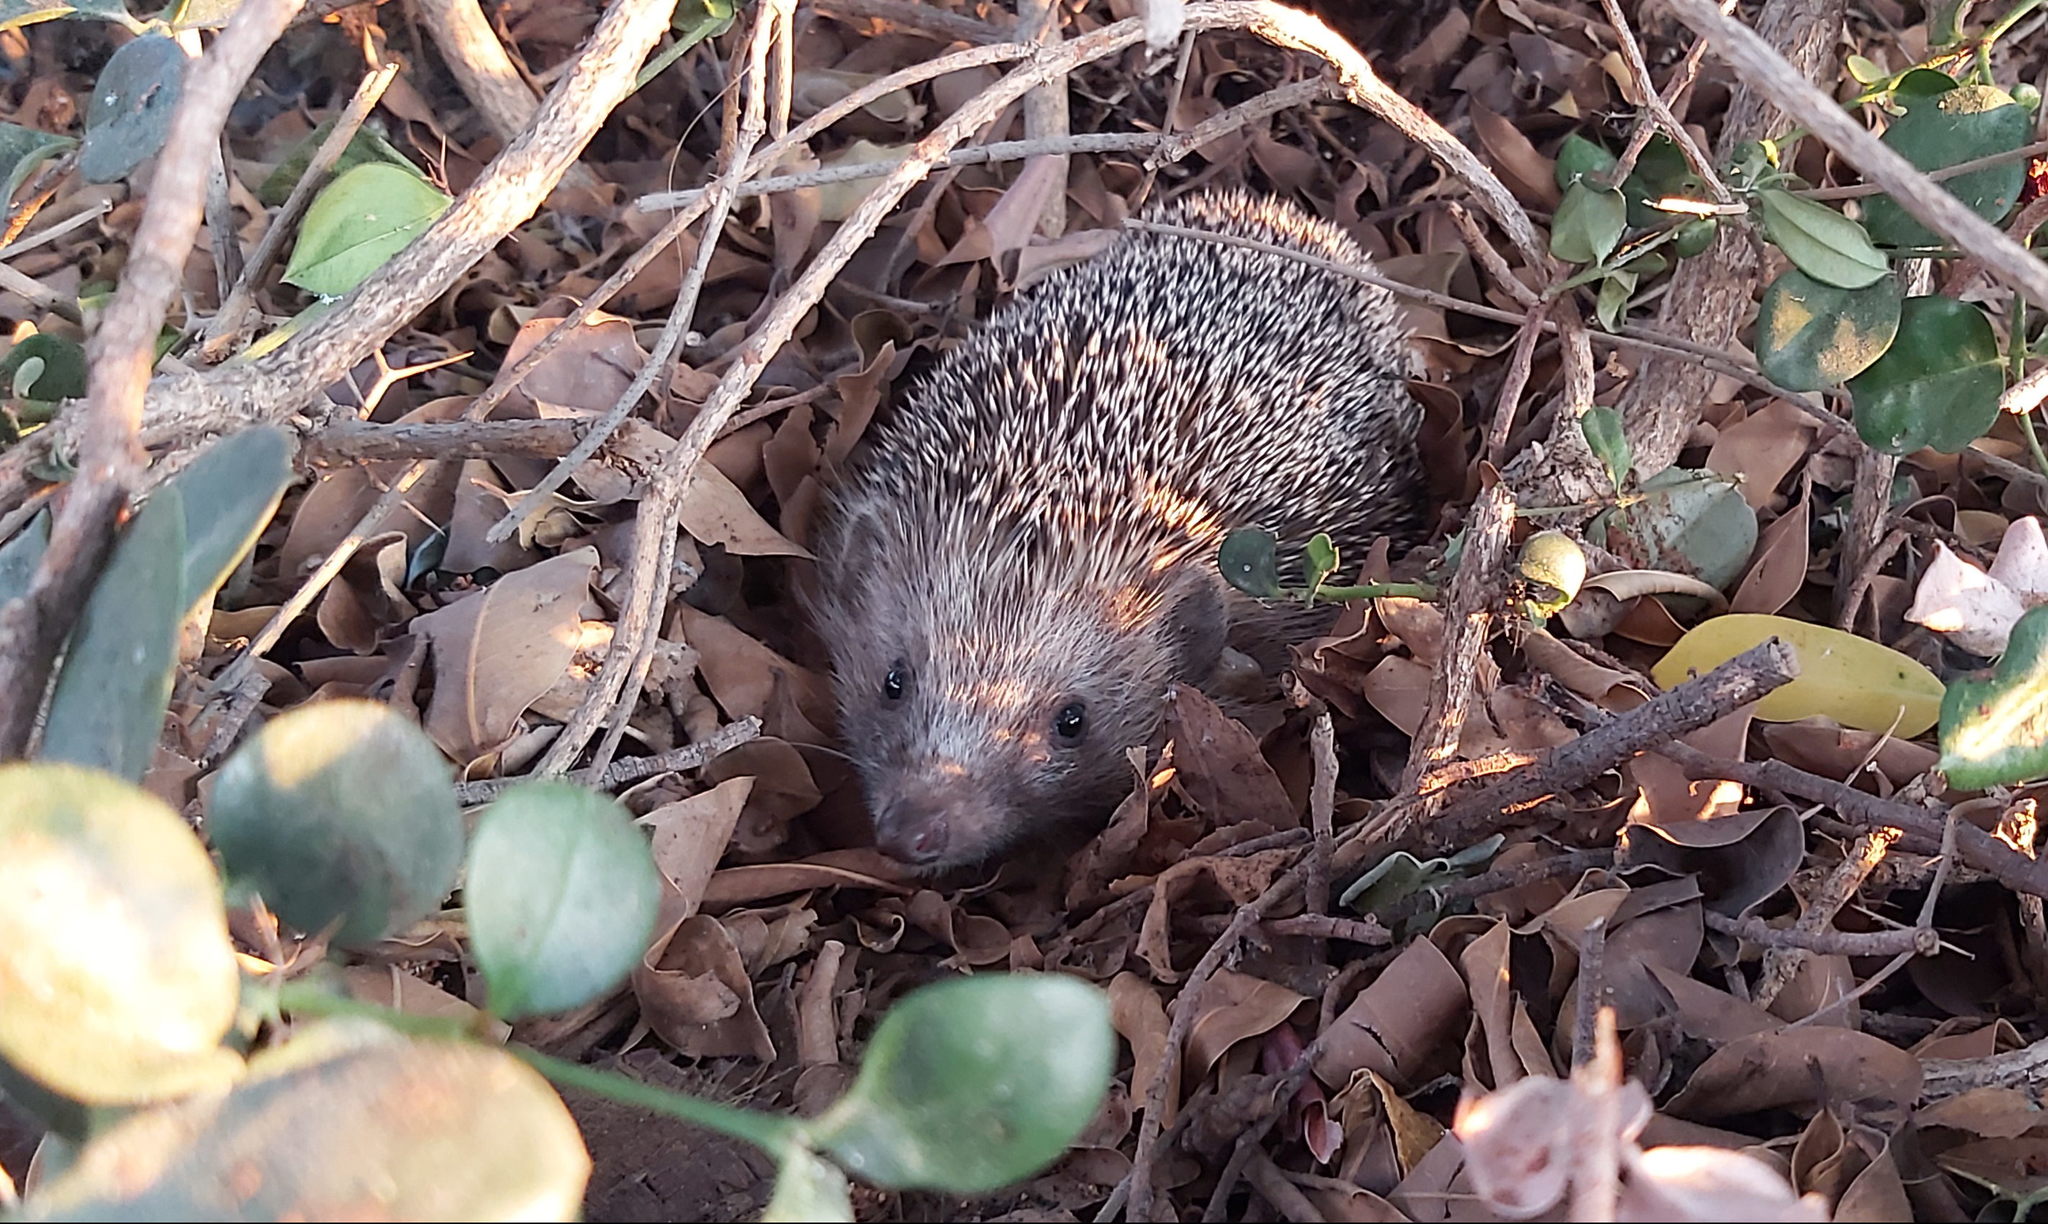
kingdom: Animalia
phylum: Chordata
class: Mammalia
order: Erinaceomorpha
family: Erinaceidae
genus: Erinaceus
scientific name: Erinaceus concolor
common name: Southern white-breasted hedgehog
